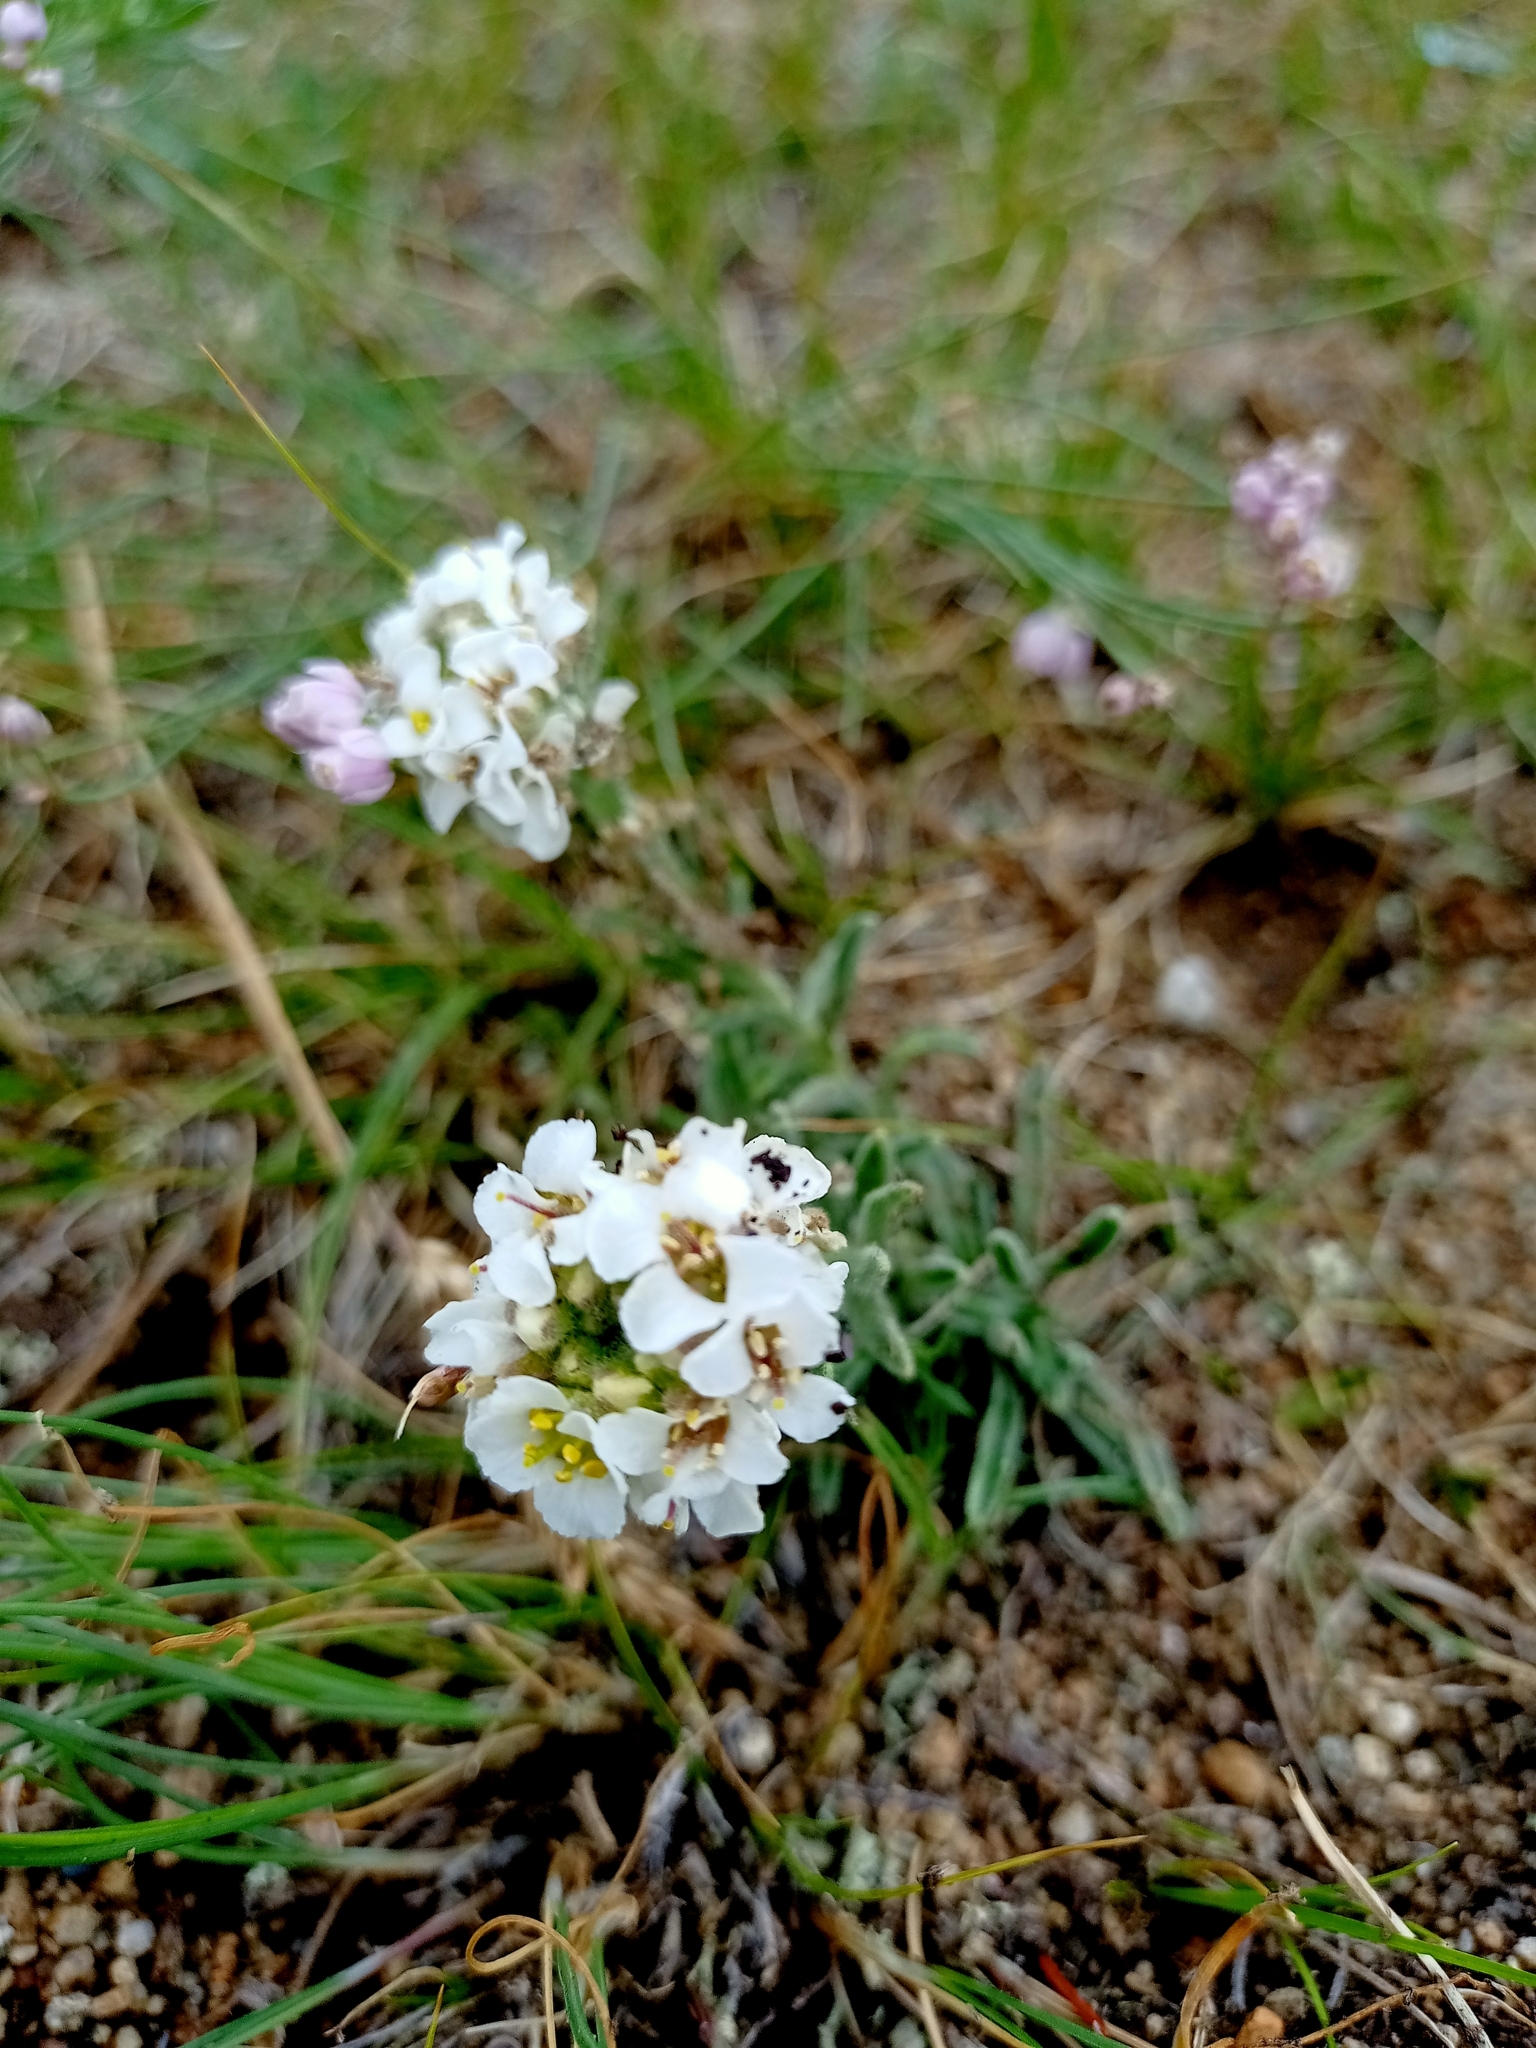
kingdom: Plantae
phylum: Tracheophyta
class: Magnoliopsida
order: Brassicales
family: Brassicaceae
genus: Stevenia
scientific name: Stevenia tenuifolia
